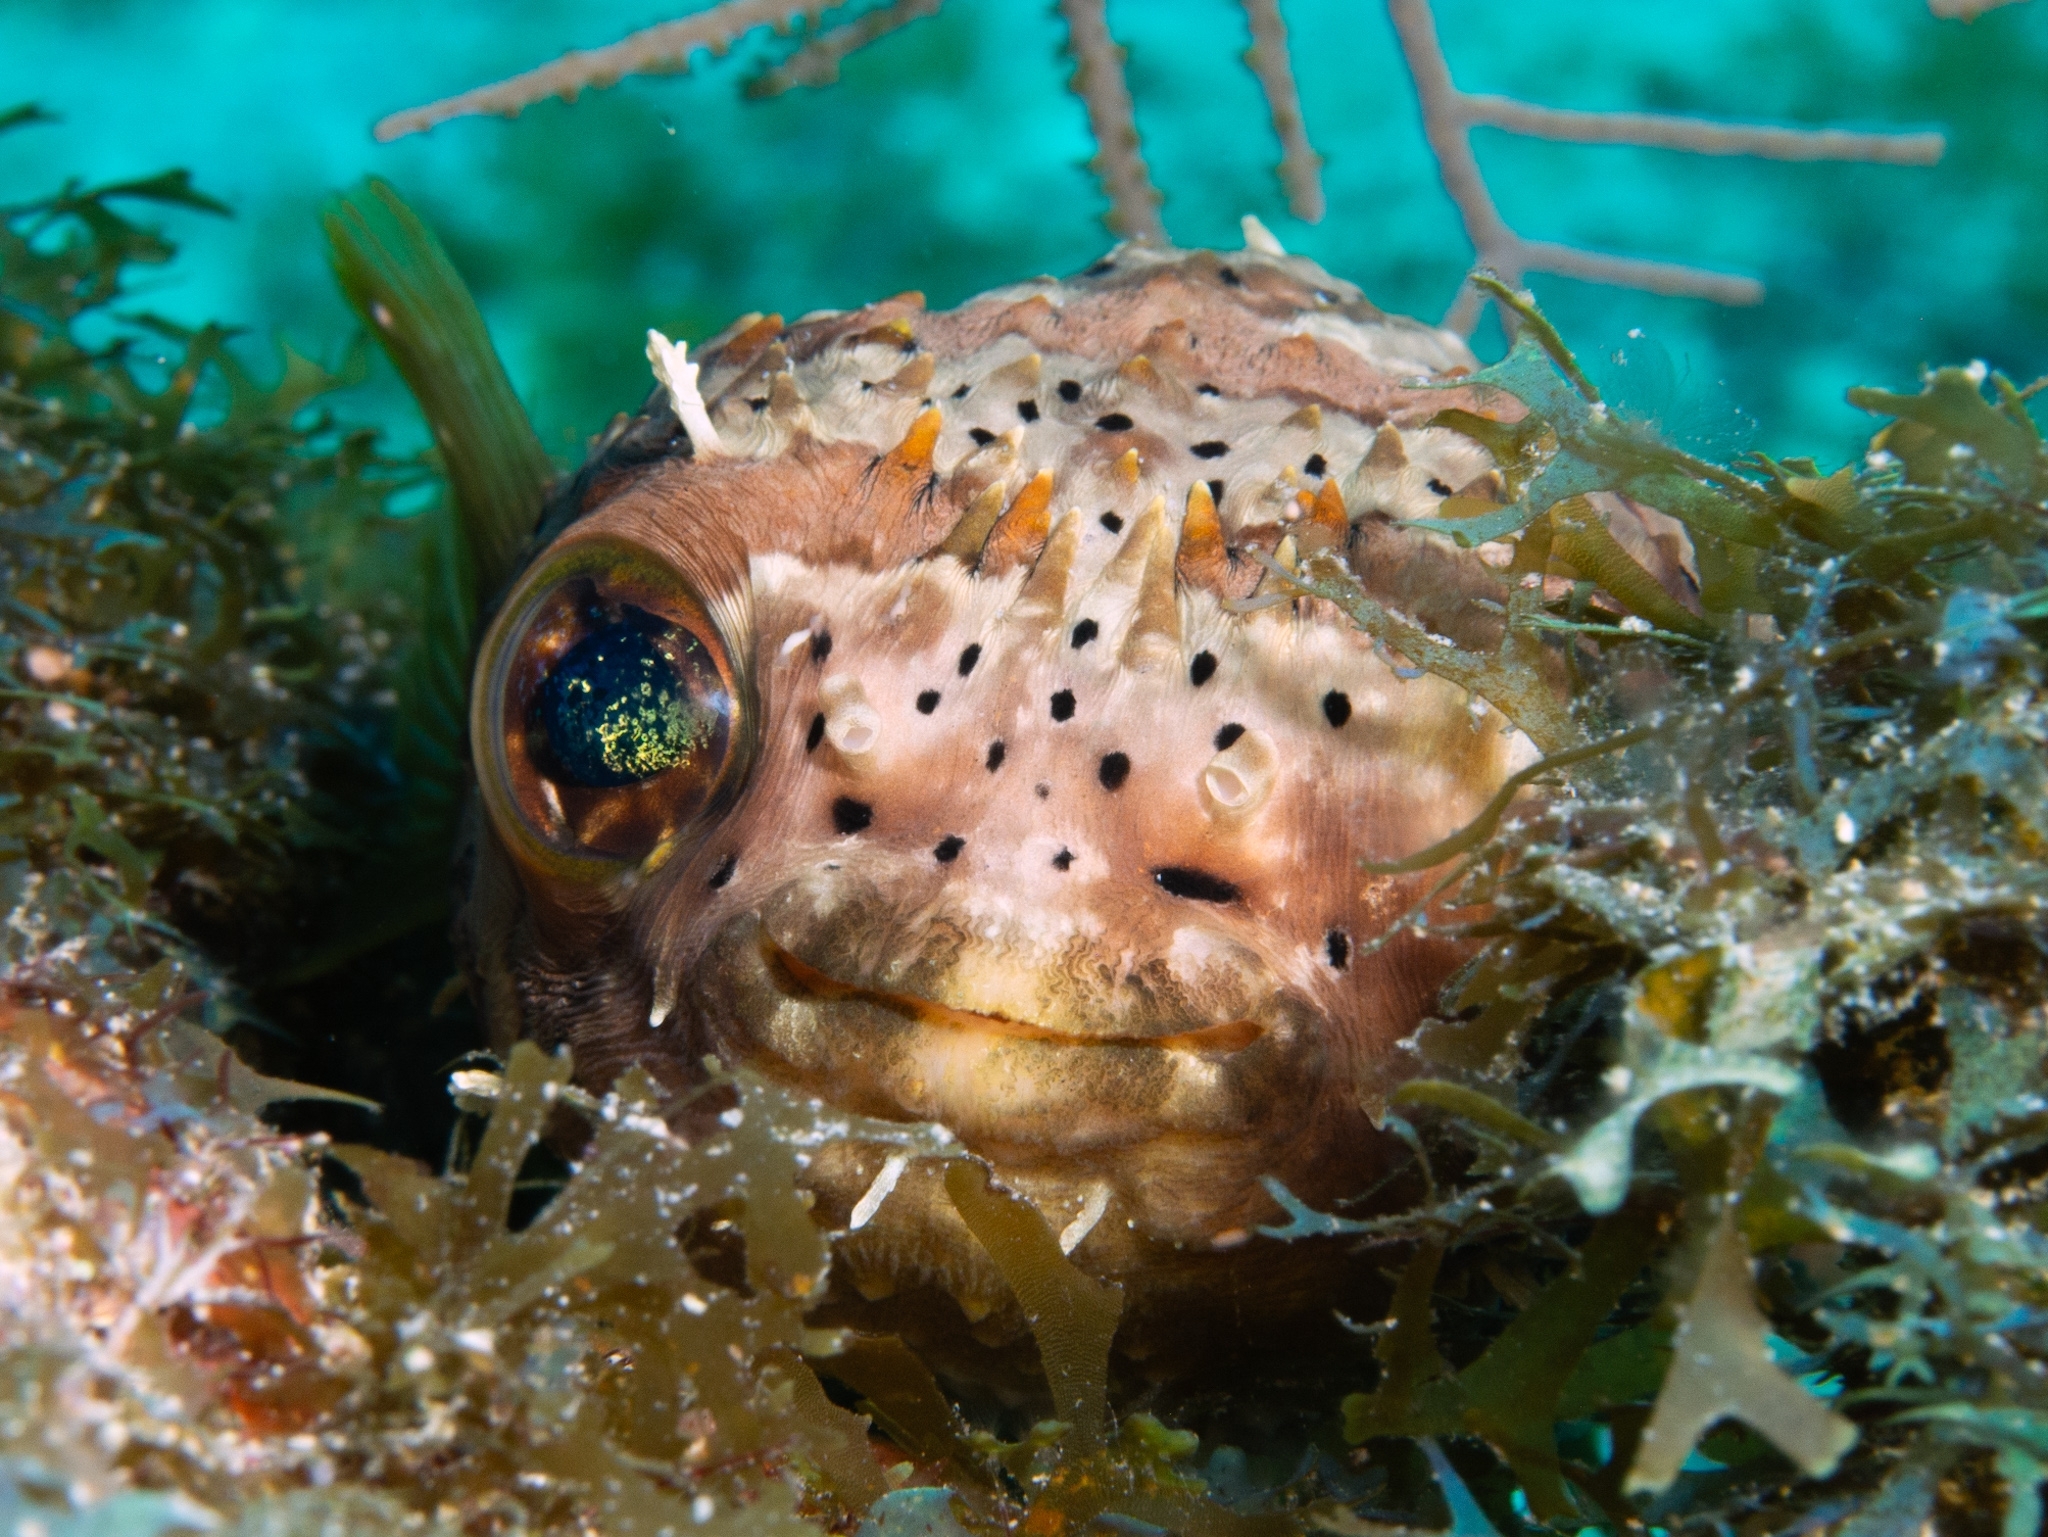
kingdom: Animalia
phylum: Chordata
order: Tetraodontiformes
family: Diodontidae
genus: Diodon
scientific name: Diodon holocanthus
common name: Balloonfish
